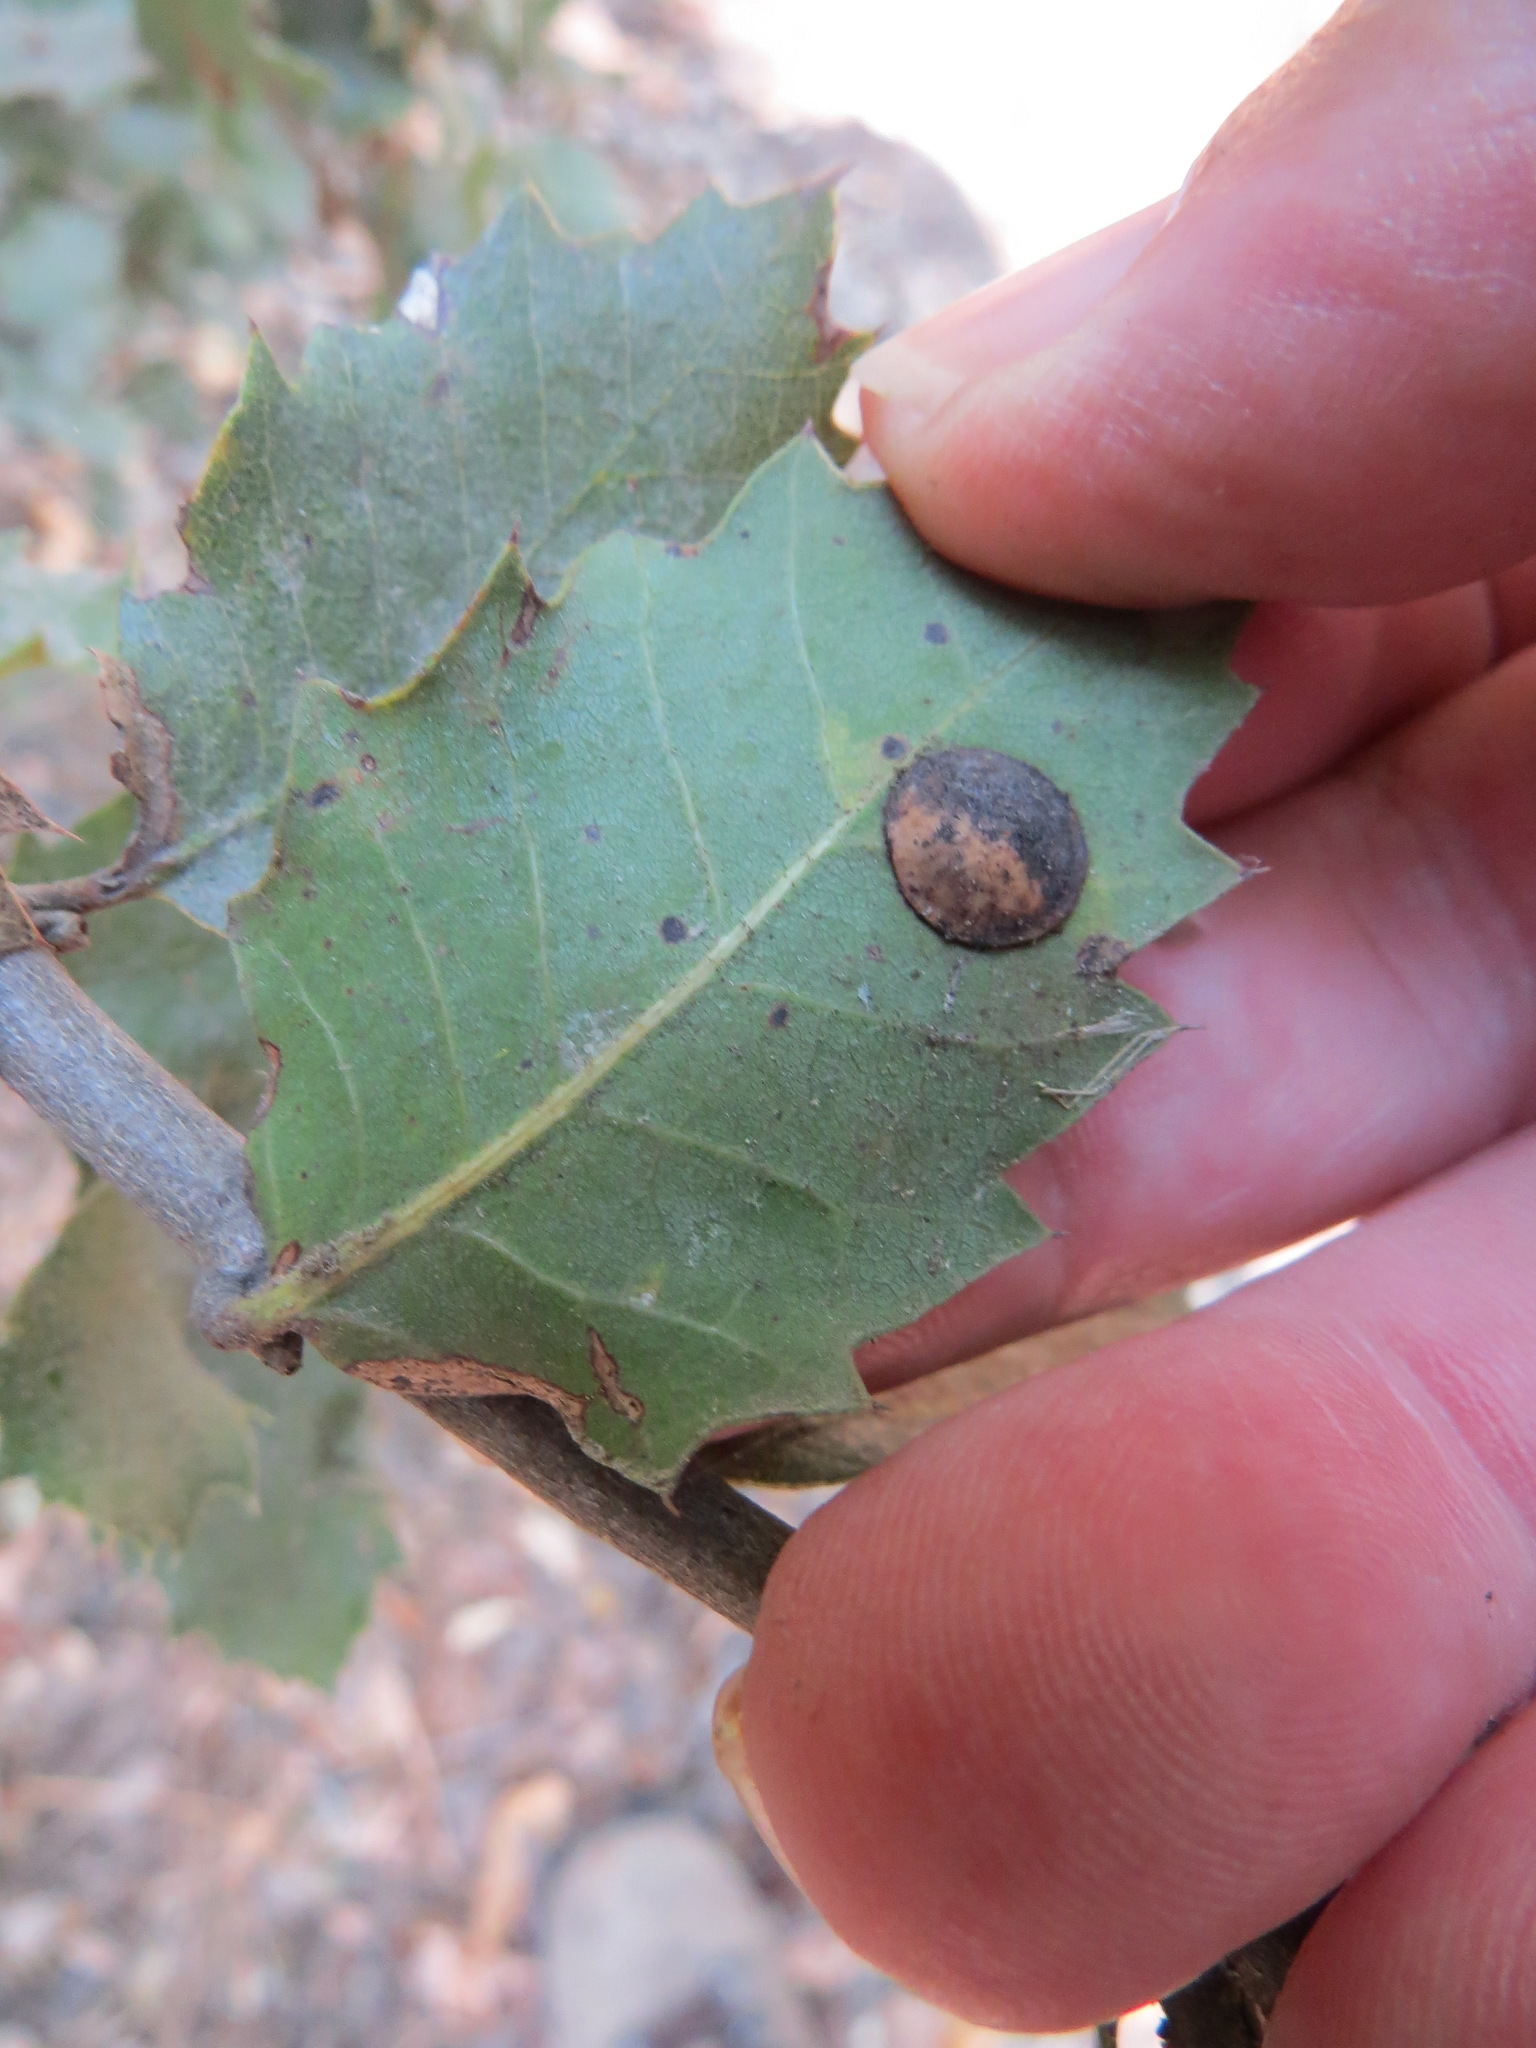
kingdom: Animalia
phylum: Arthropoda
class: Insecta
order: Hymenoptera
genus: Paracraspis
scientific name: Paracraspis
